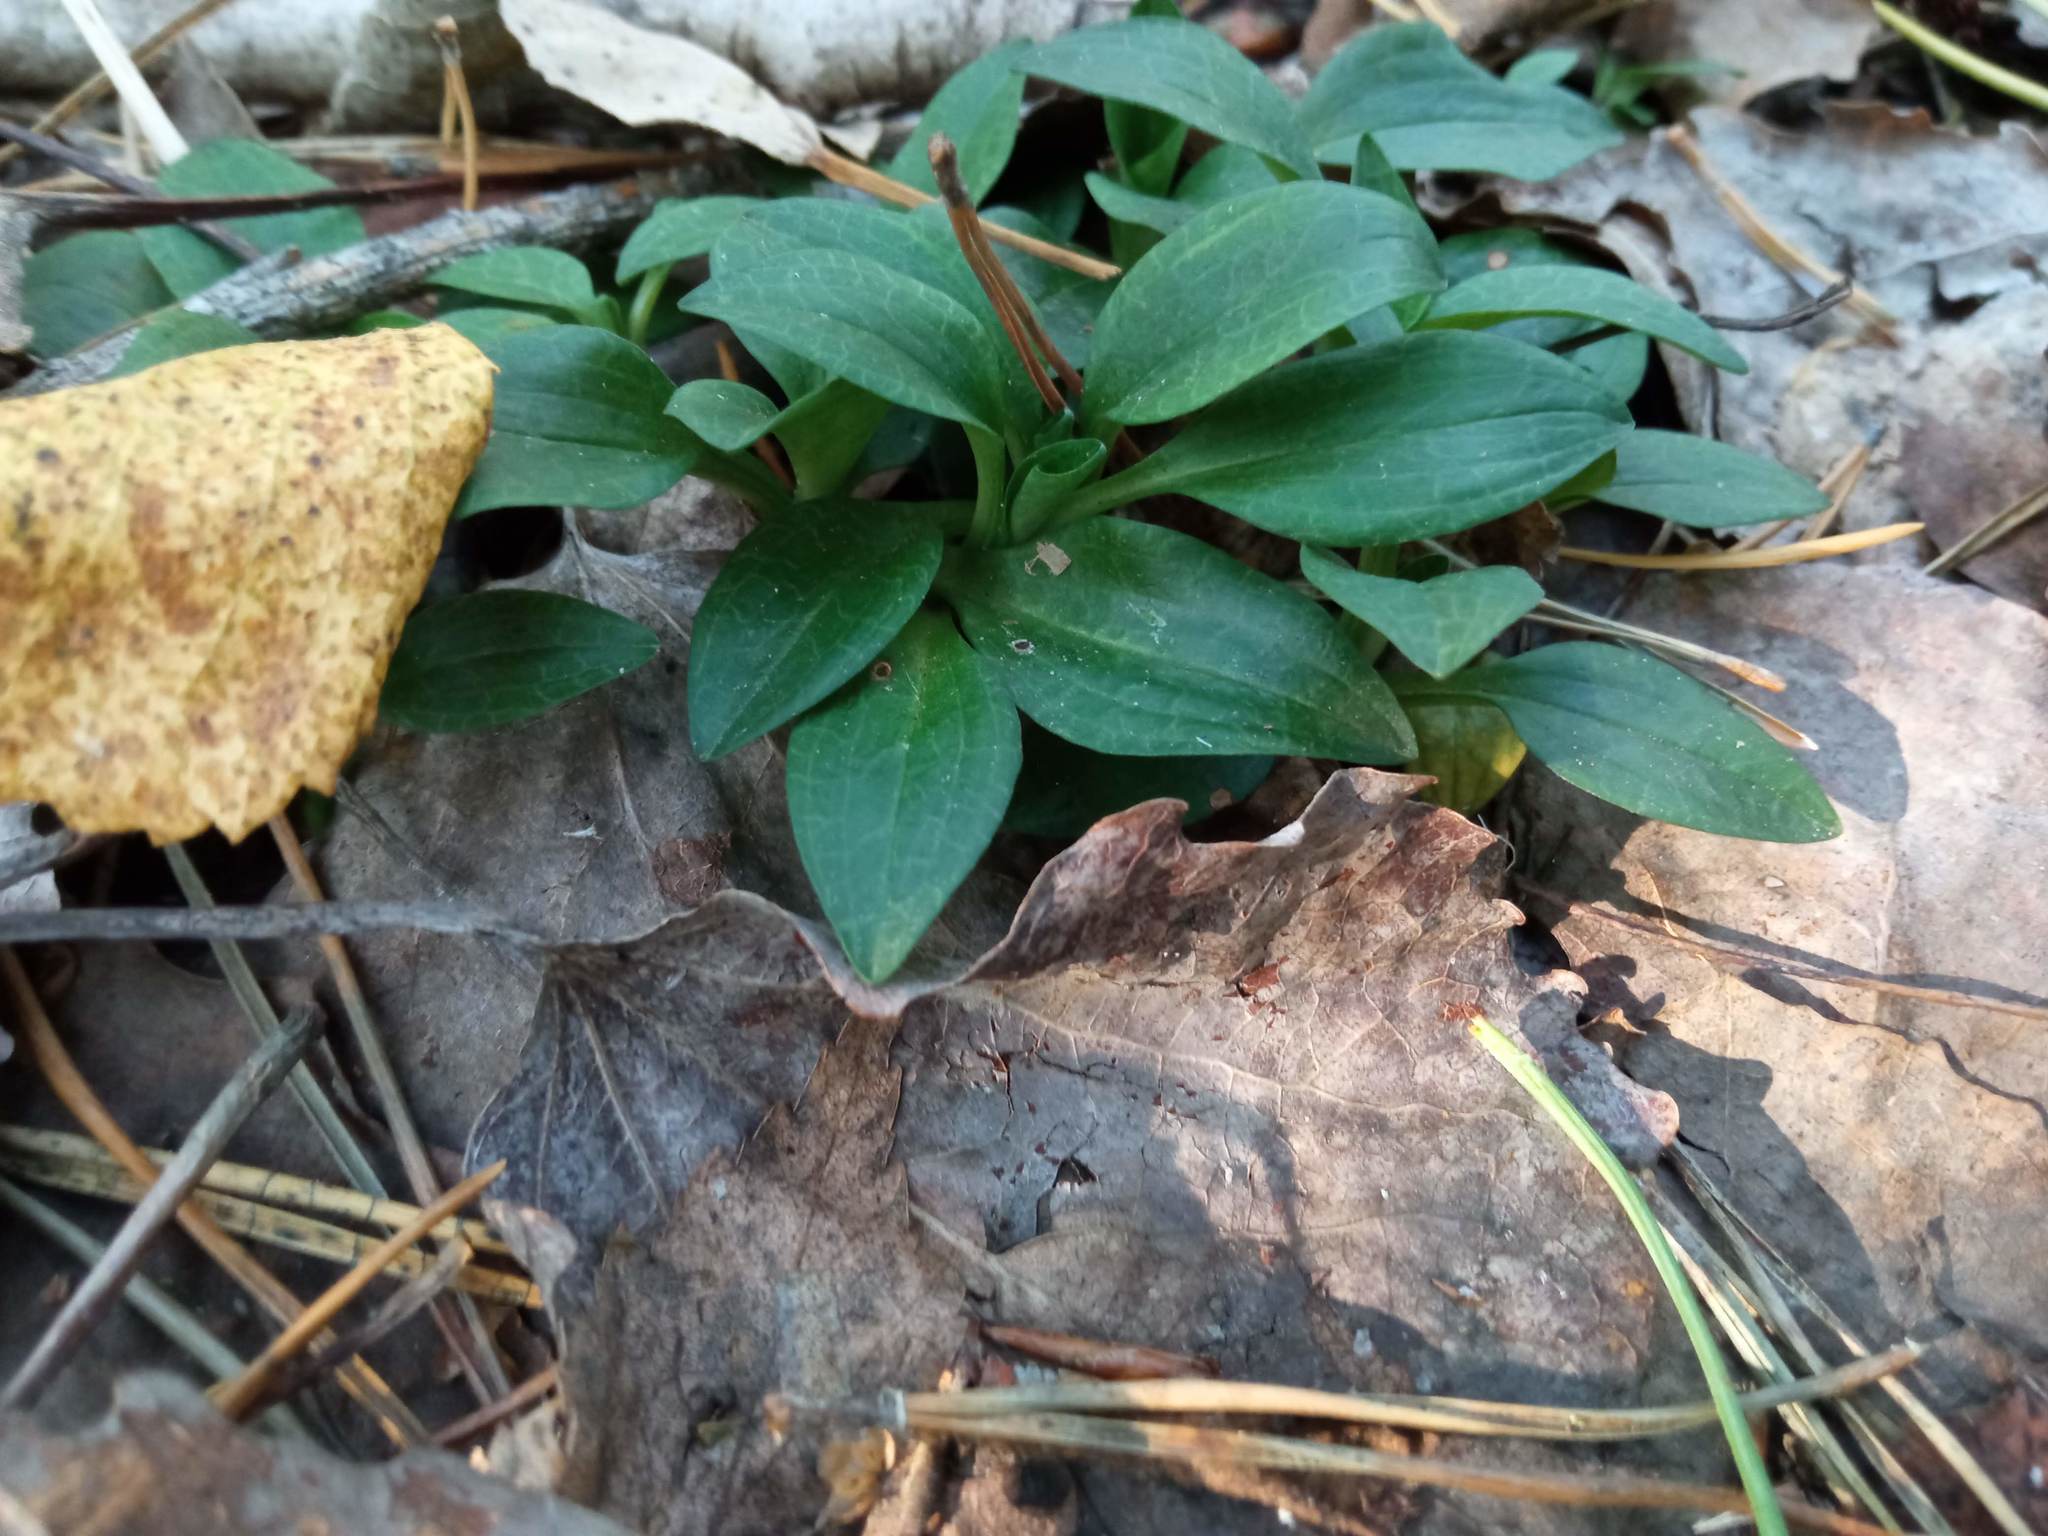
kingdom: Plantae
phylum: Tracheophyta
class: Liliopsida
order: Asparagales
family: Orchidaceae
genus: Goodyera
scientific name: Goodyera repens
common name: Creeping lady's-tresses
